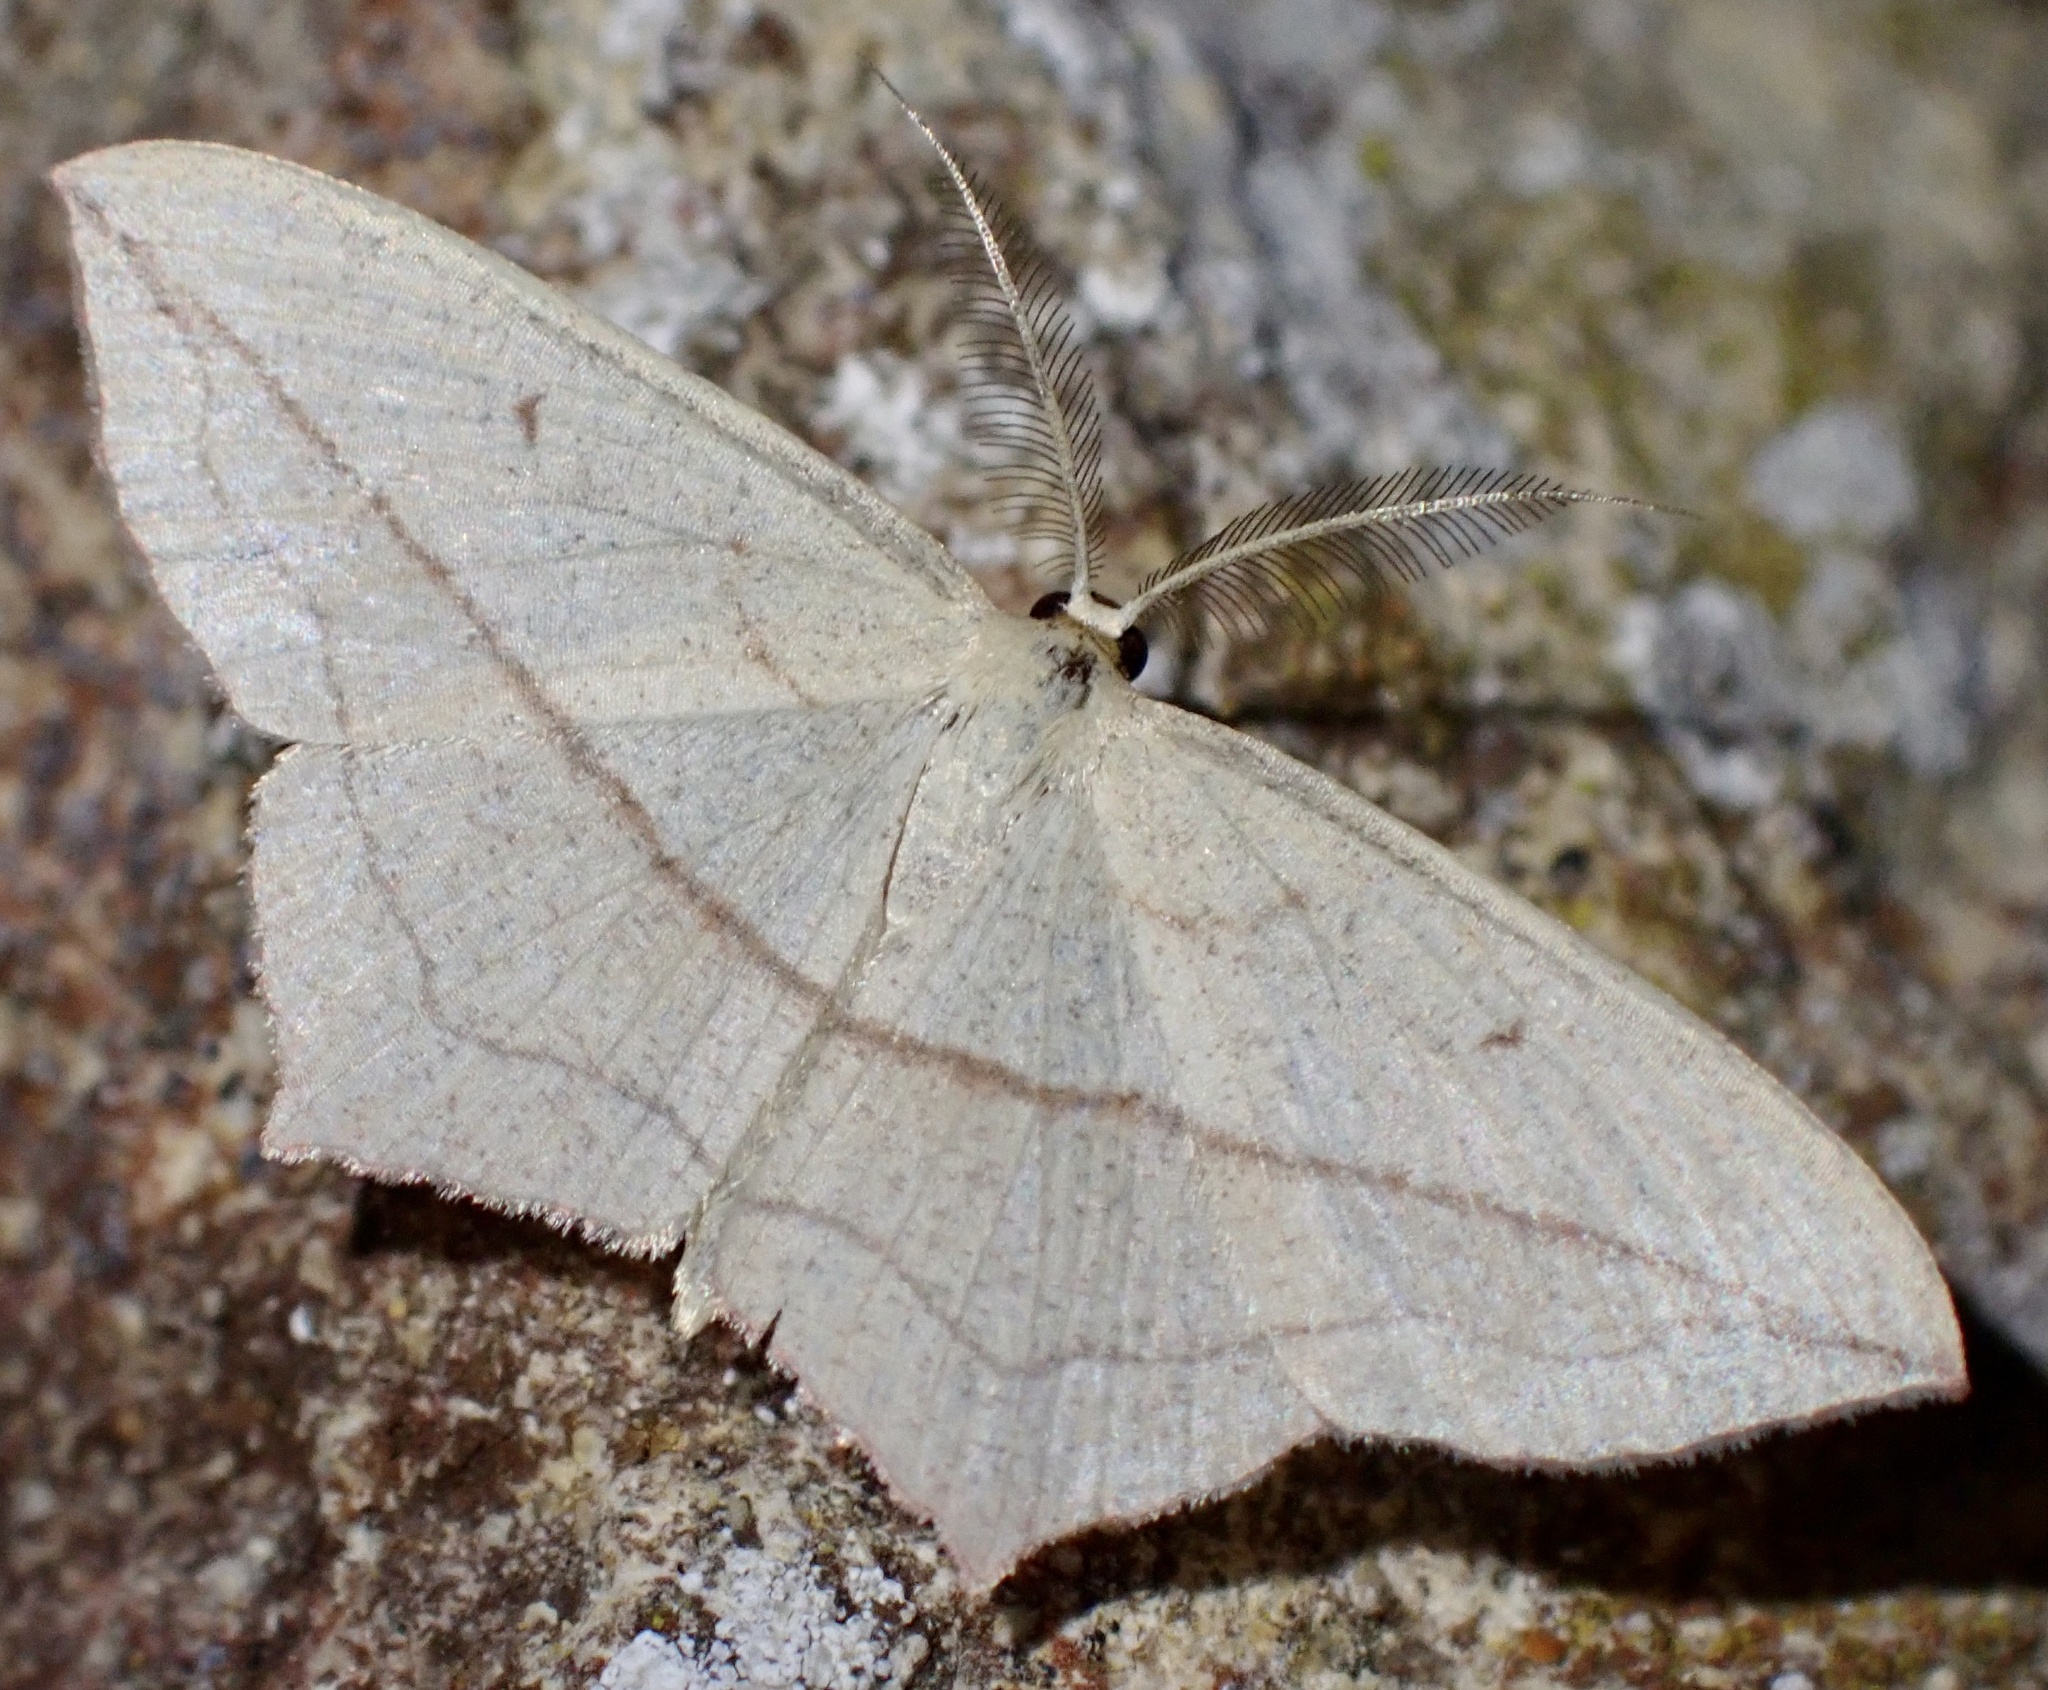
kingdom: Animalia
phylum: Arthropoda
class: Insecta
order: Lepidoptera
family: Geometridae
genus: Timandra
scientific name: Timandra comae
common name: Blood-vein
